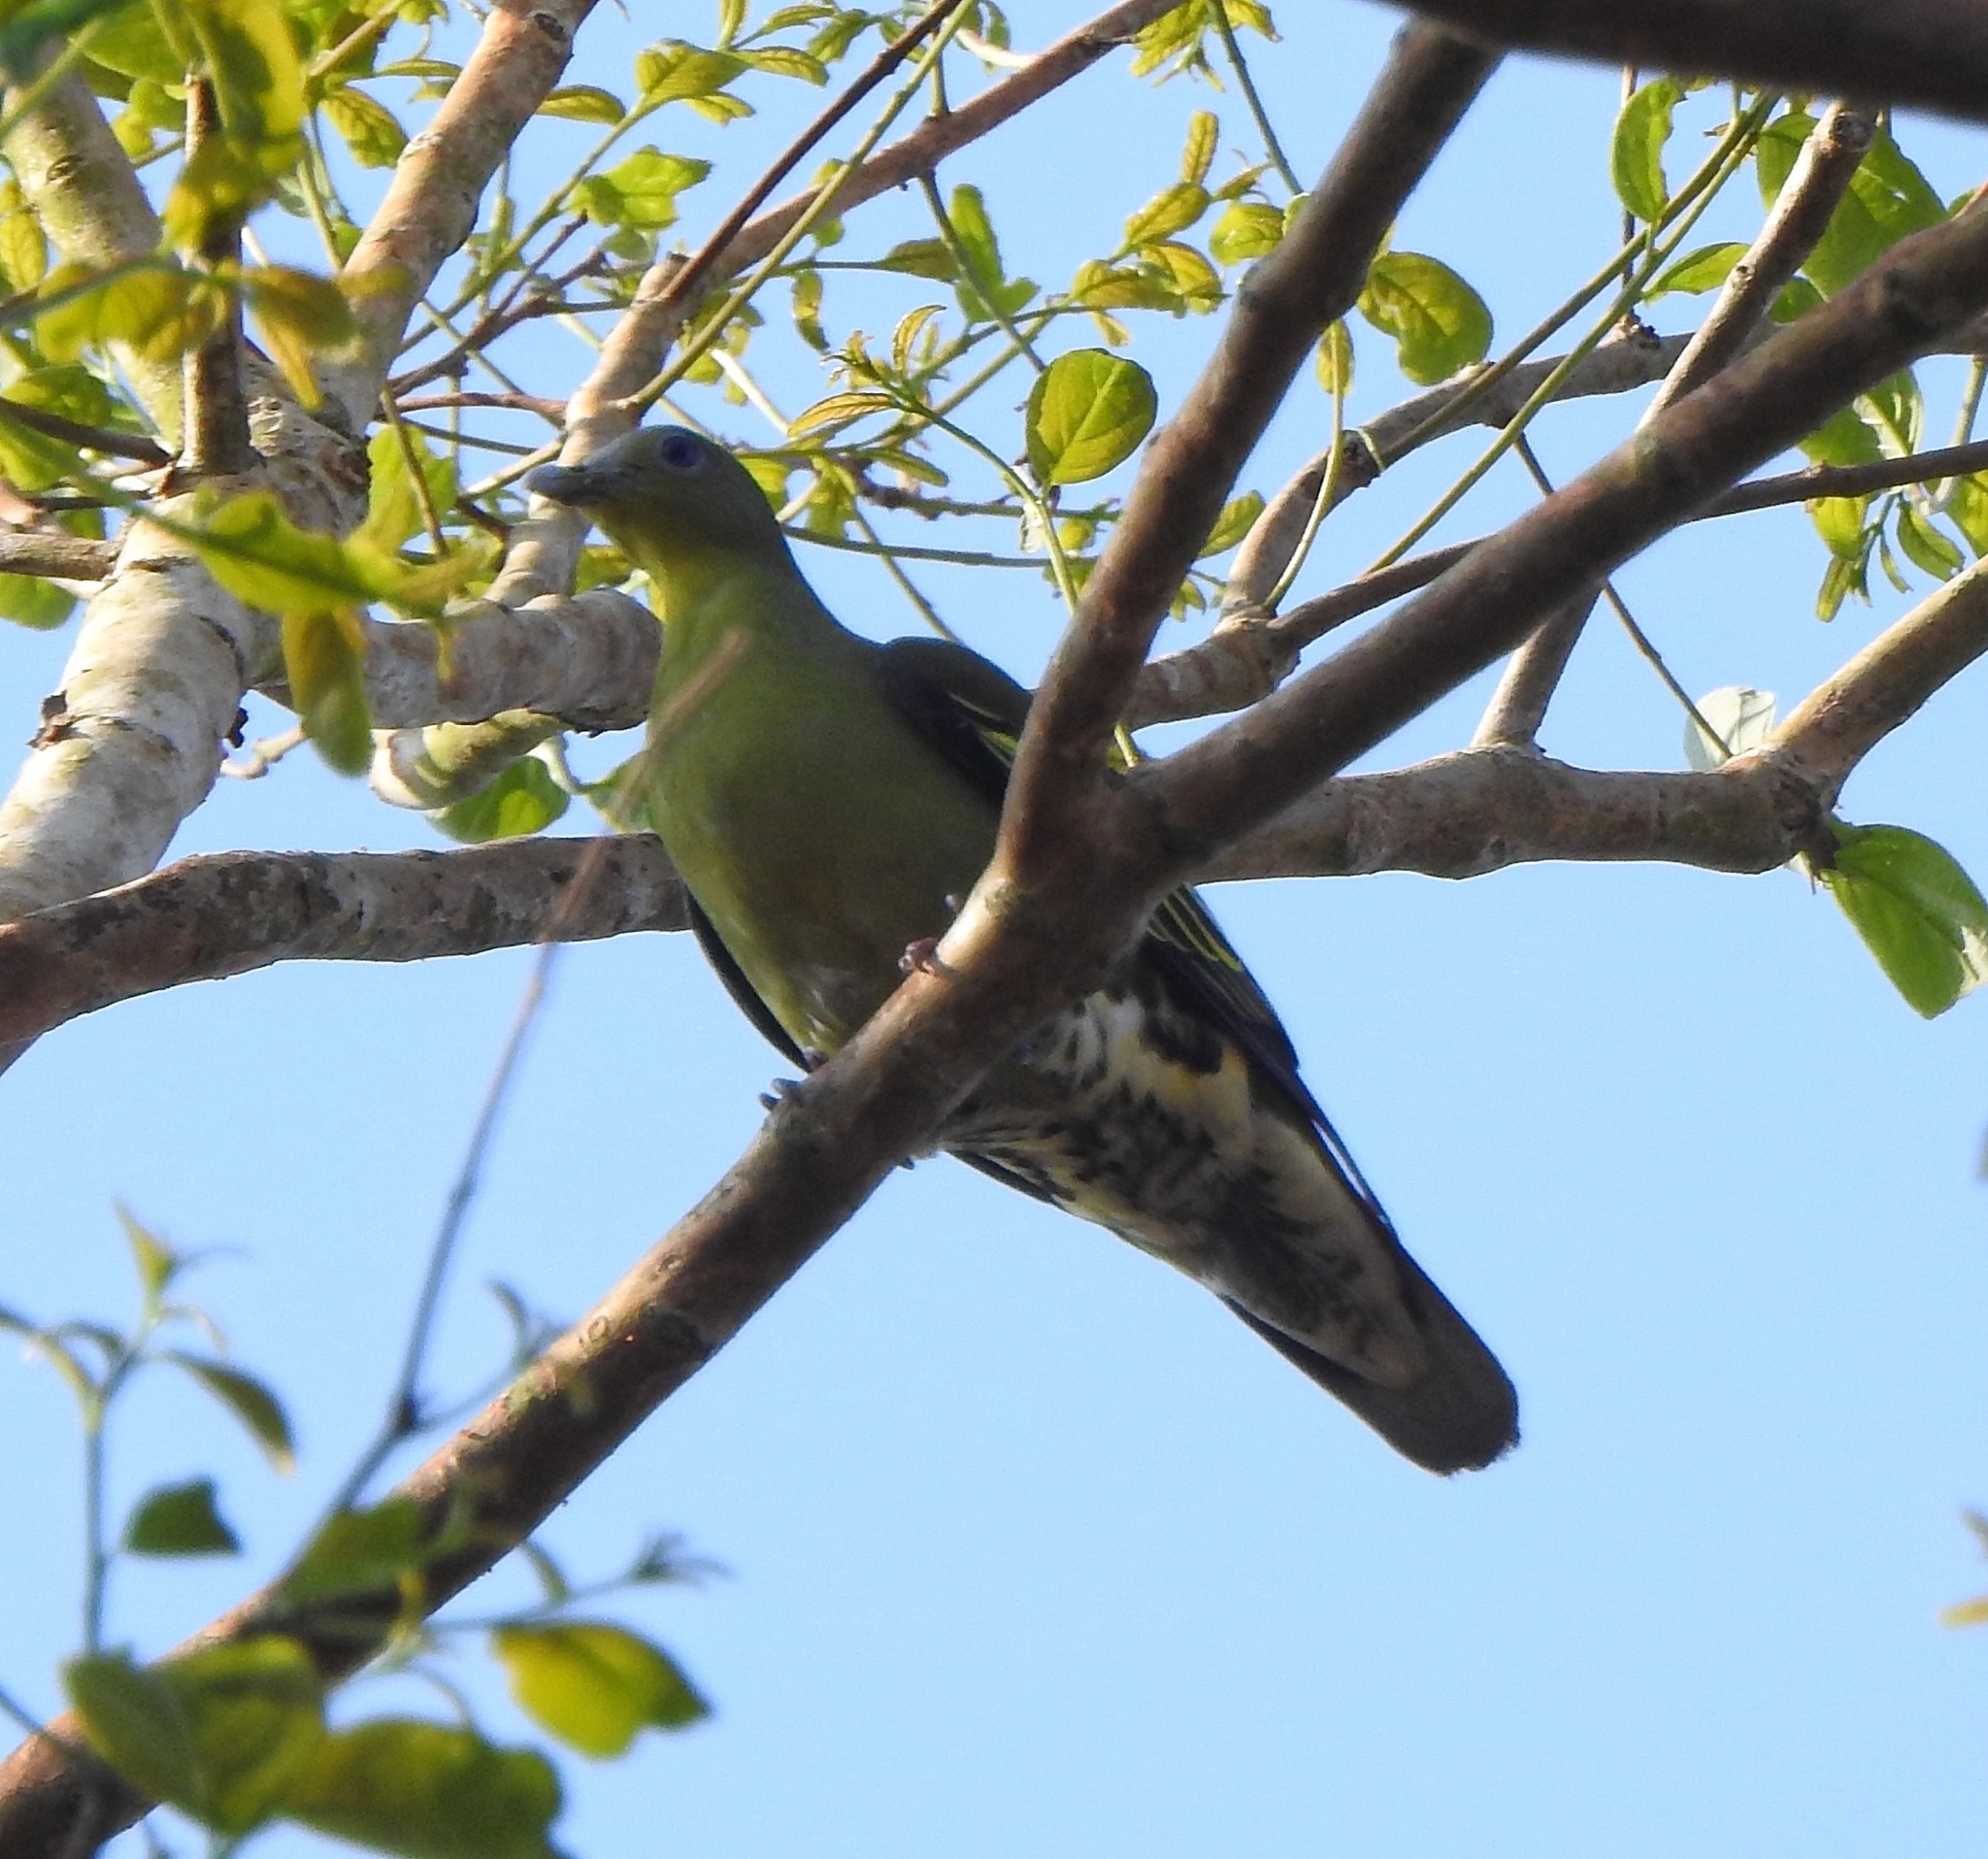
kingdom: Animalia
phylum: Chordata
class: Aves
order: Columbiformes
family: Columbidae
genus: Treron
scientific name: Treron affinis
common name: Grey-fronted green pigeon
